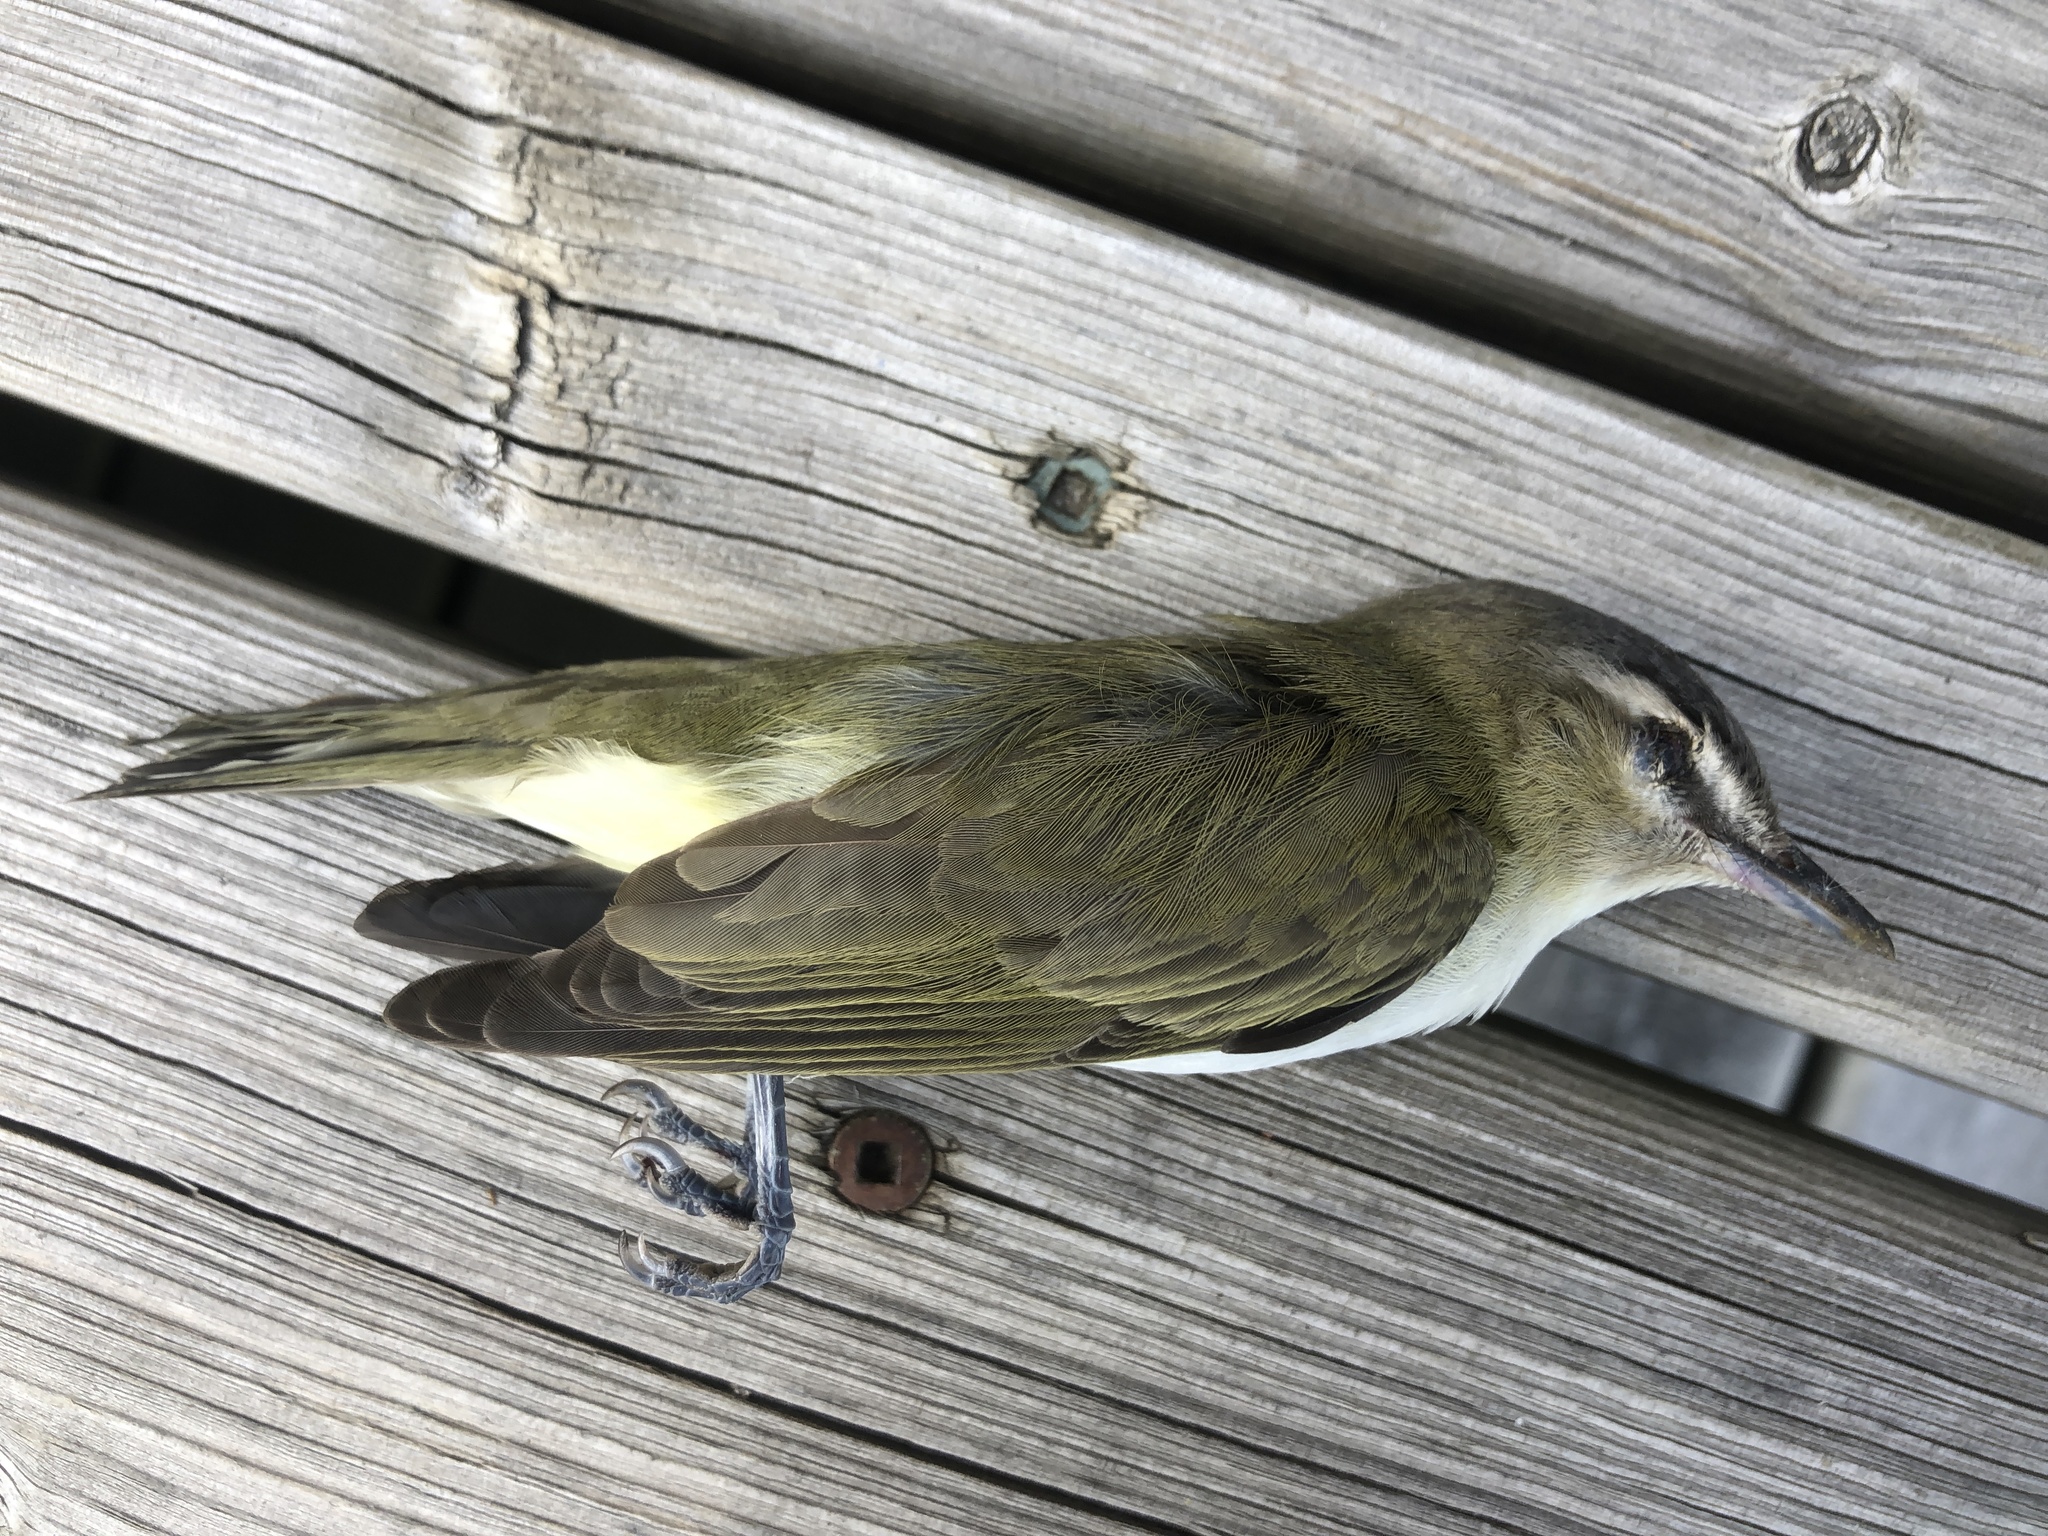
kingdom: Animalia
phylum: Chordata
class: Aves
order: Passeriformes
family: Vireonidae
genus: Vireo
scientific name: Vireo olivaceus
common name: Red-eyed vireo
